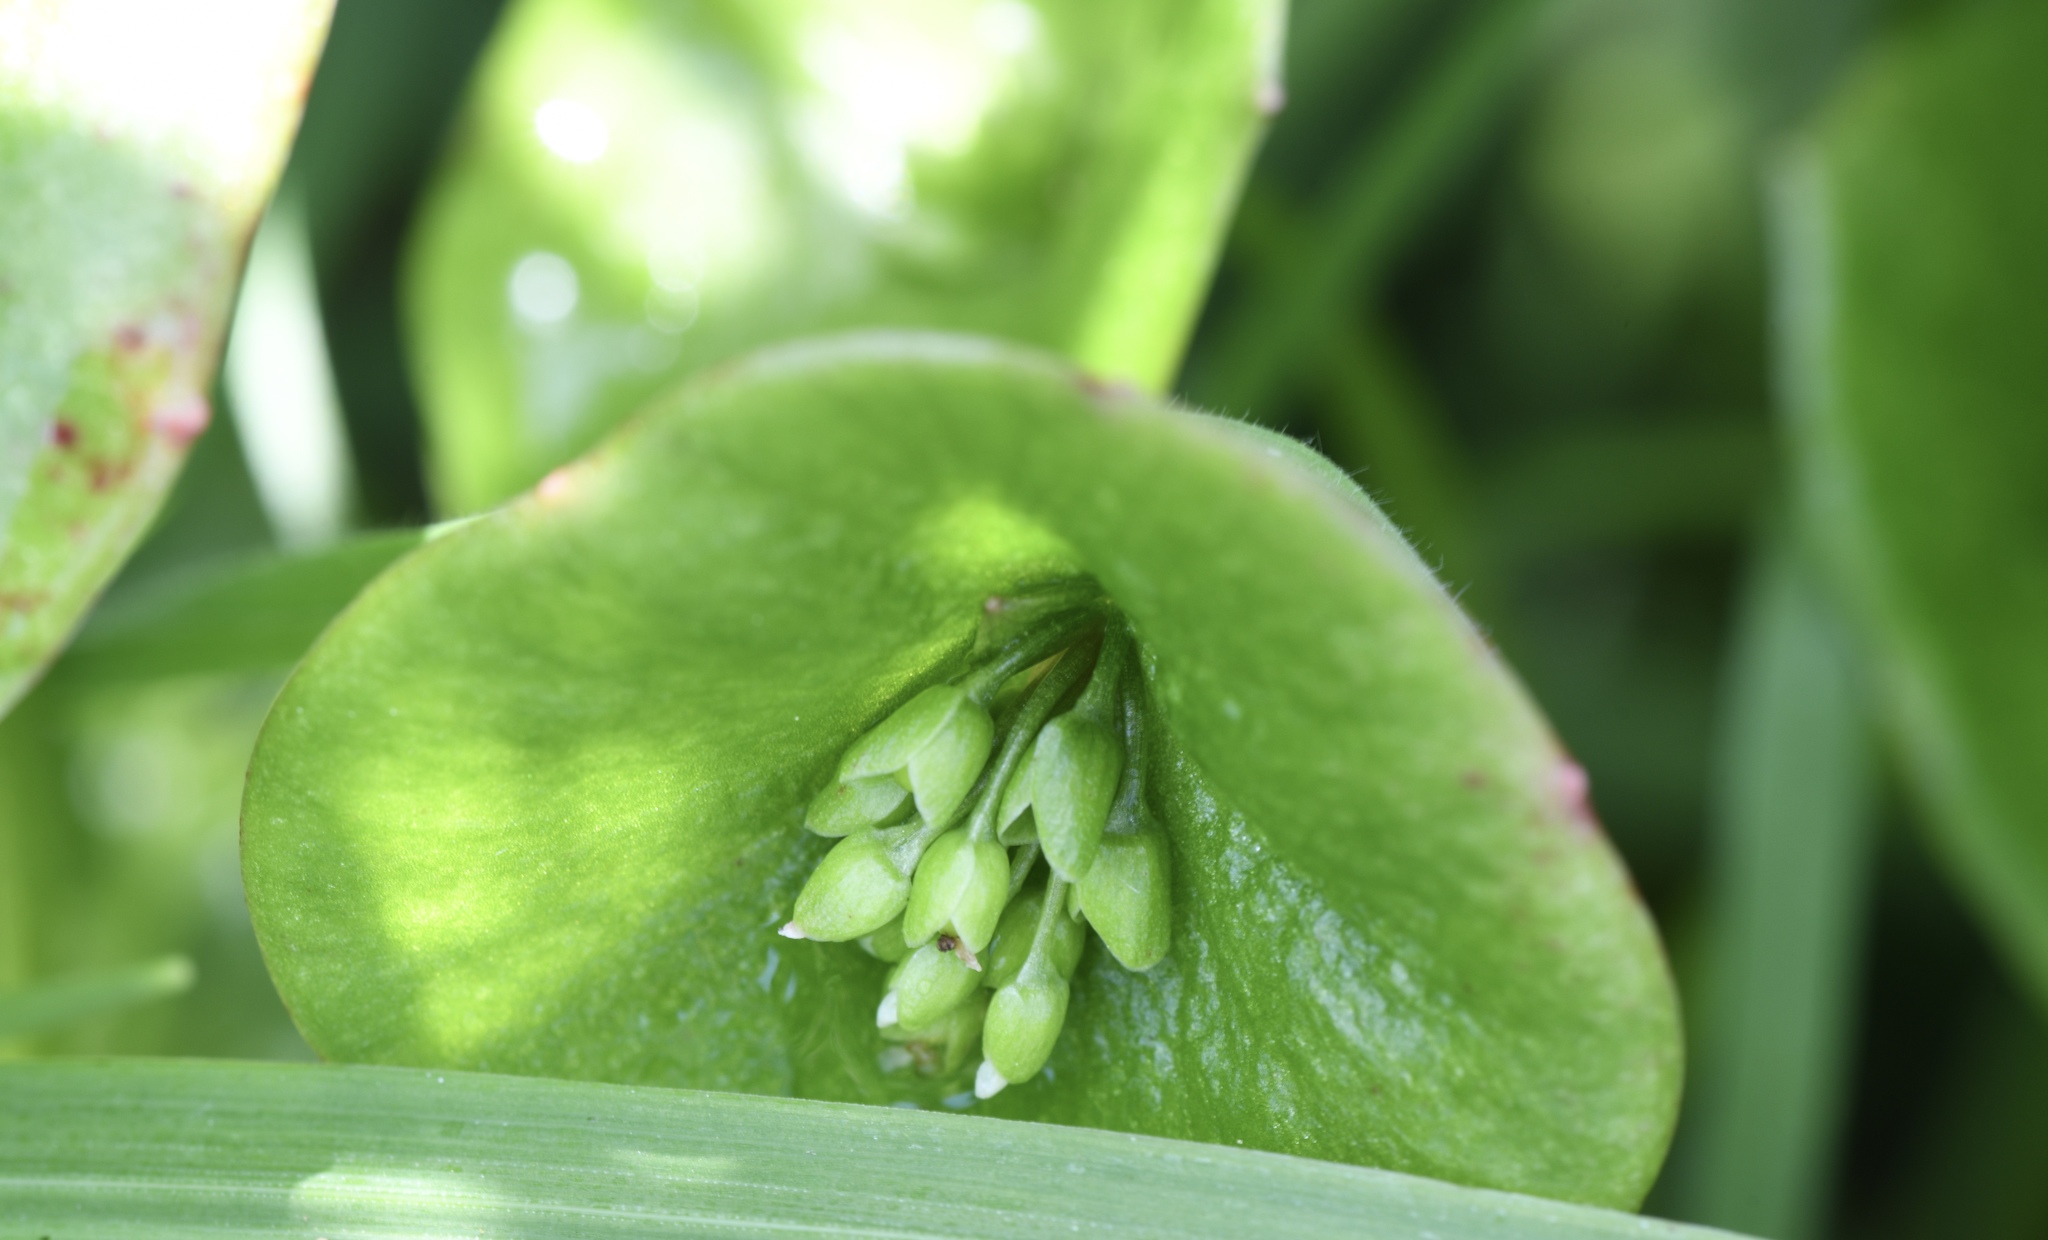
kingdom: Plantae
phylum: Tracheophyta
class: Magnoliopsida
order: Caryophyllales
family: Montiaceae
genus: Claytonia
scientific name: Claytonia perfoliata
